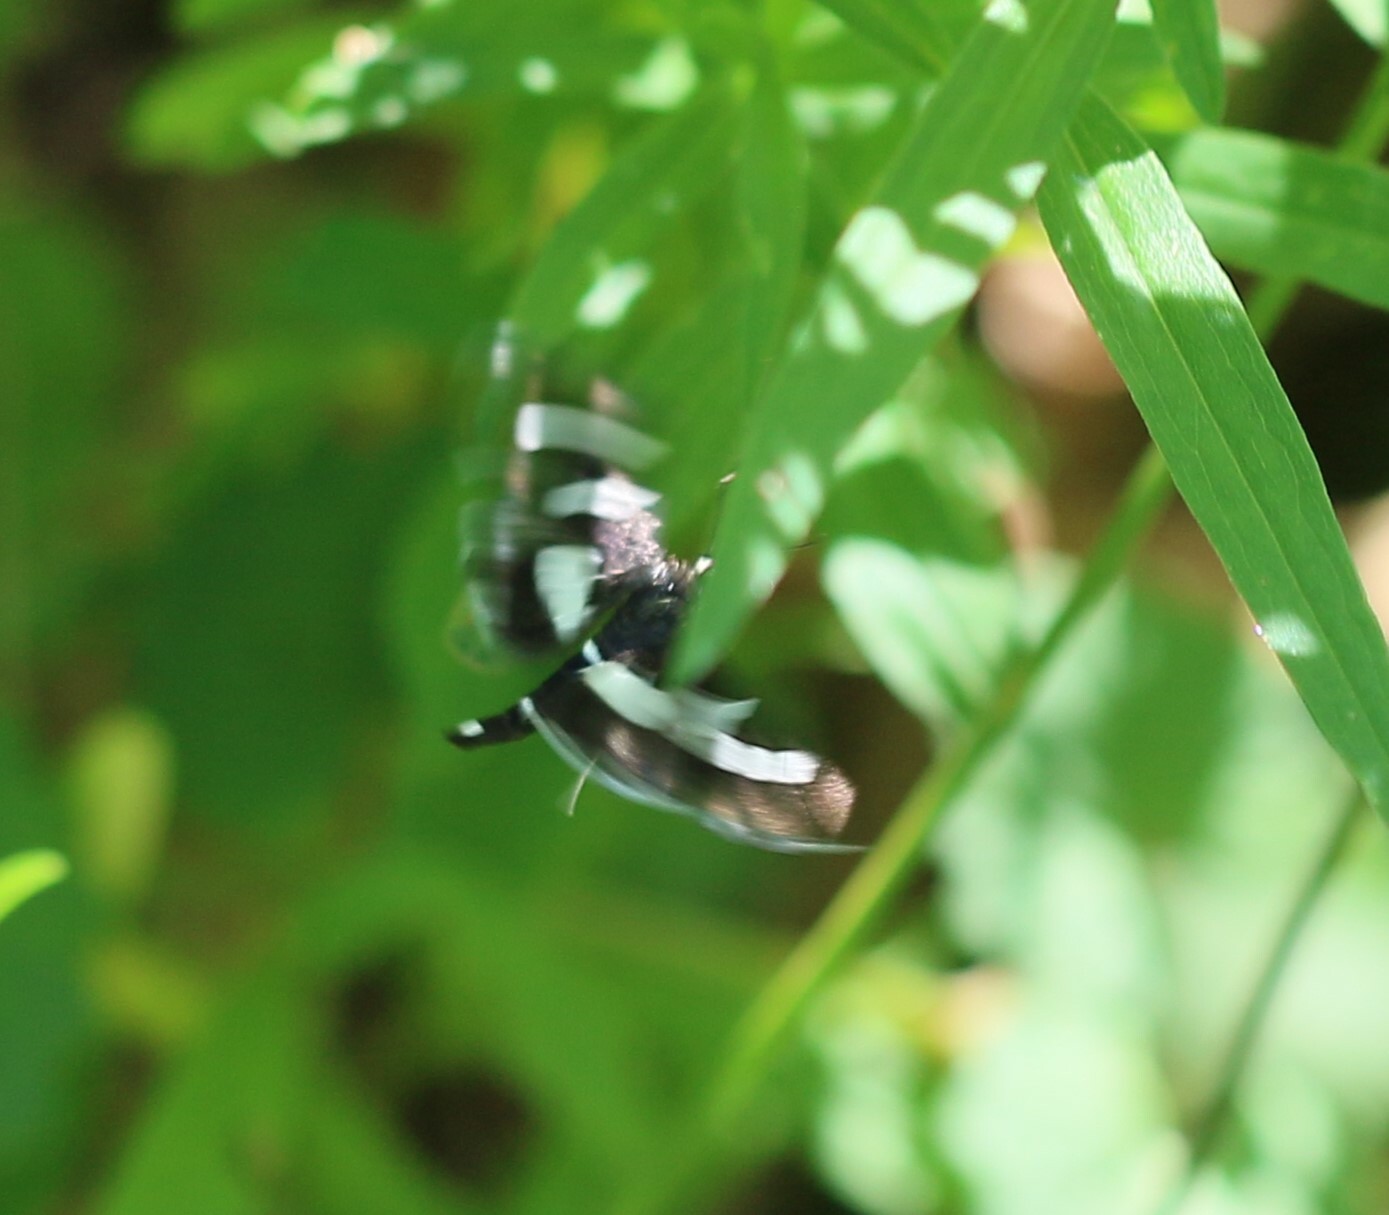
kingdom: Animalia
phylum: Arthropoda
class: Insecta
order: Lepidoptera
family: Crambidae
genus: Desmia
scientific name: Desmia
